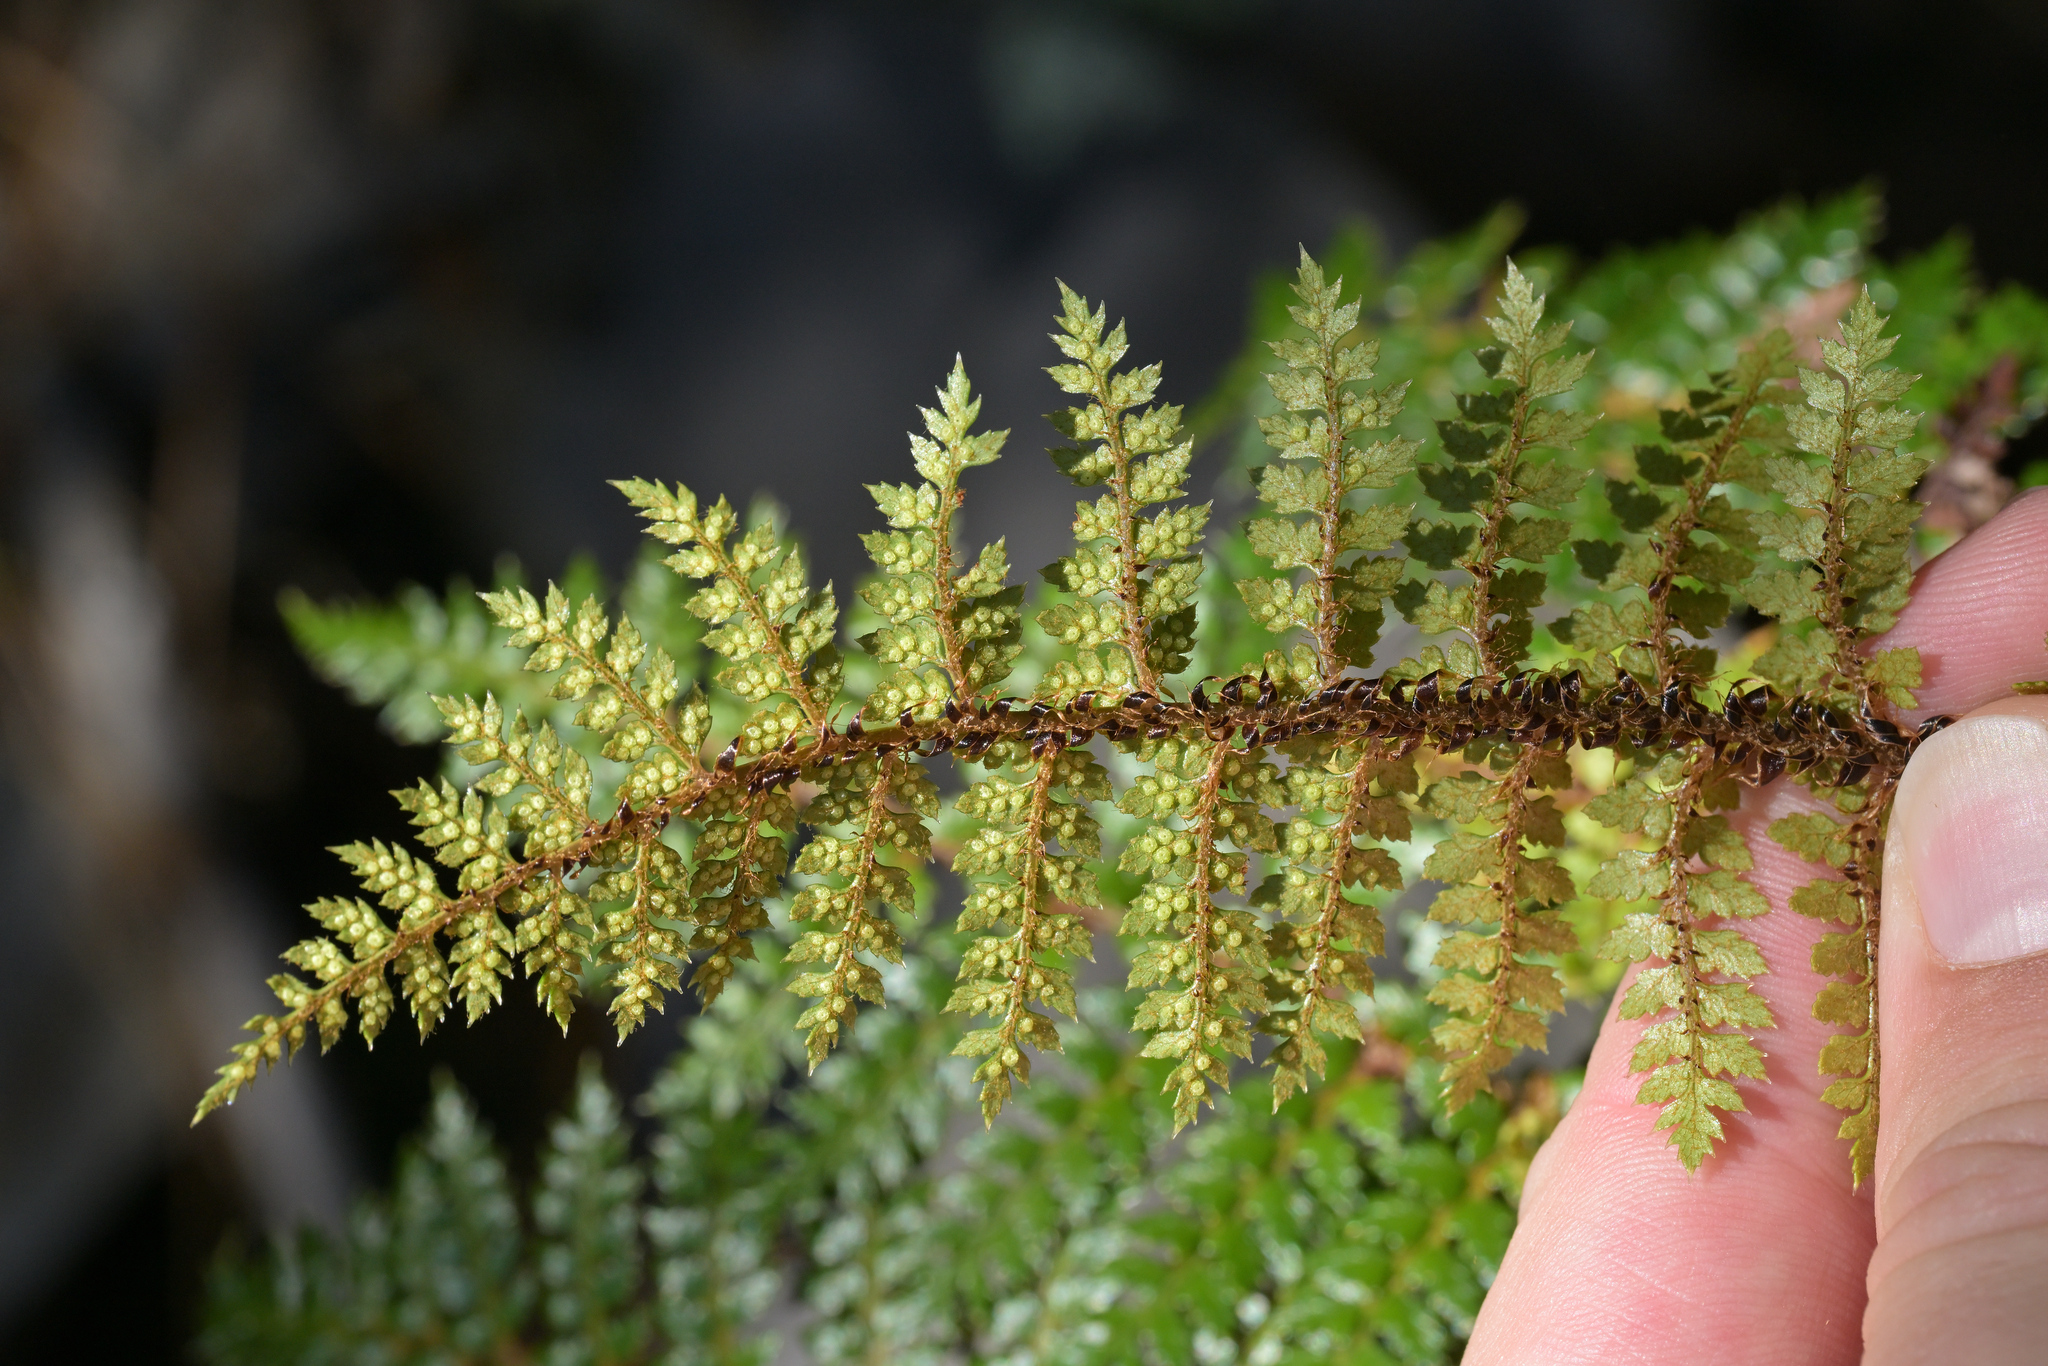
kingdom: Plantae
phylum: Tracheophyta
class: Polypodiopsida
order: Polypodiales
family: Dryopteridaceae
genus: Polystichum
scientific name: Polystichum vestitum
